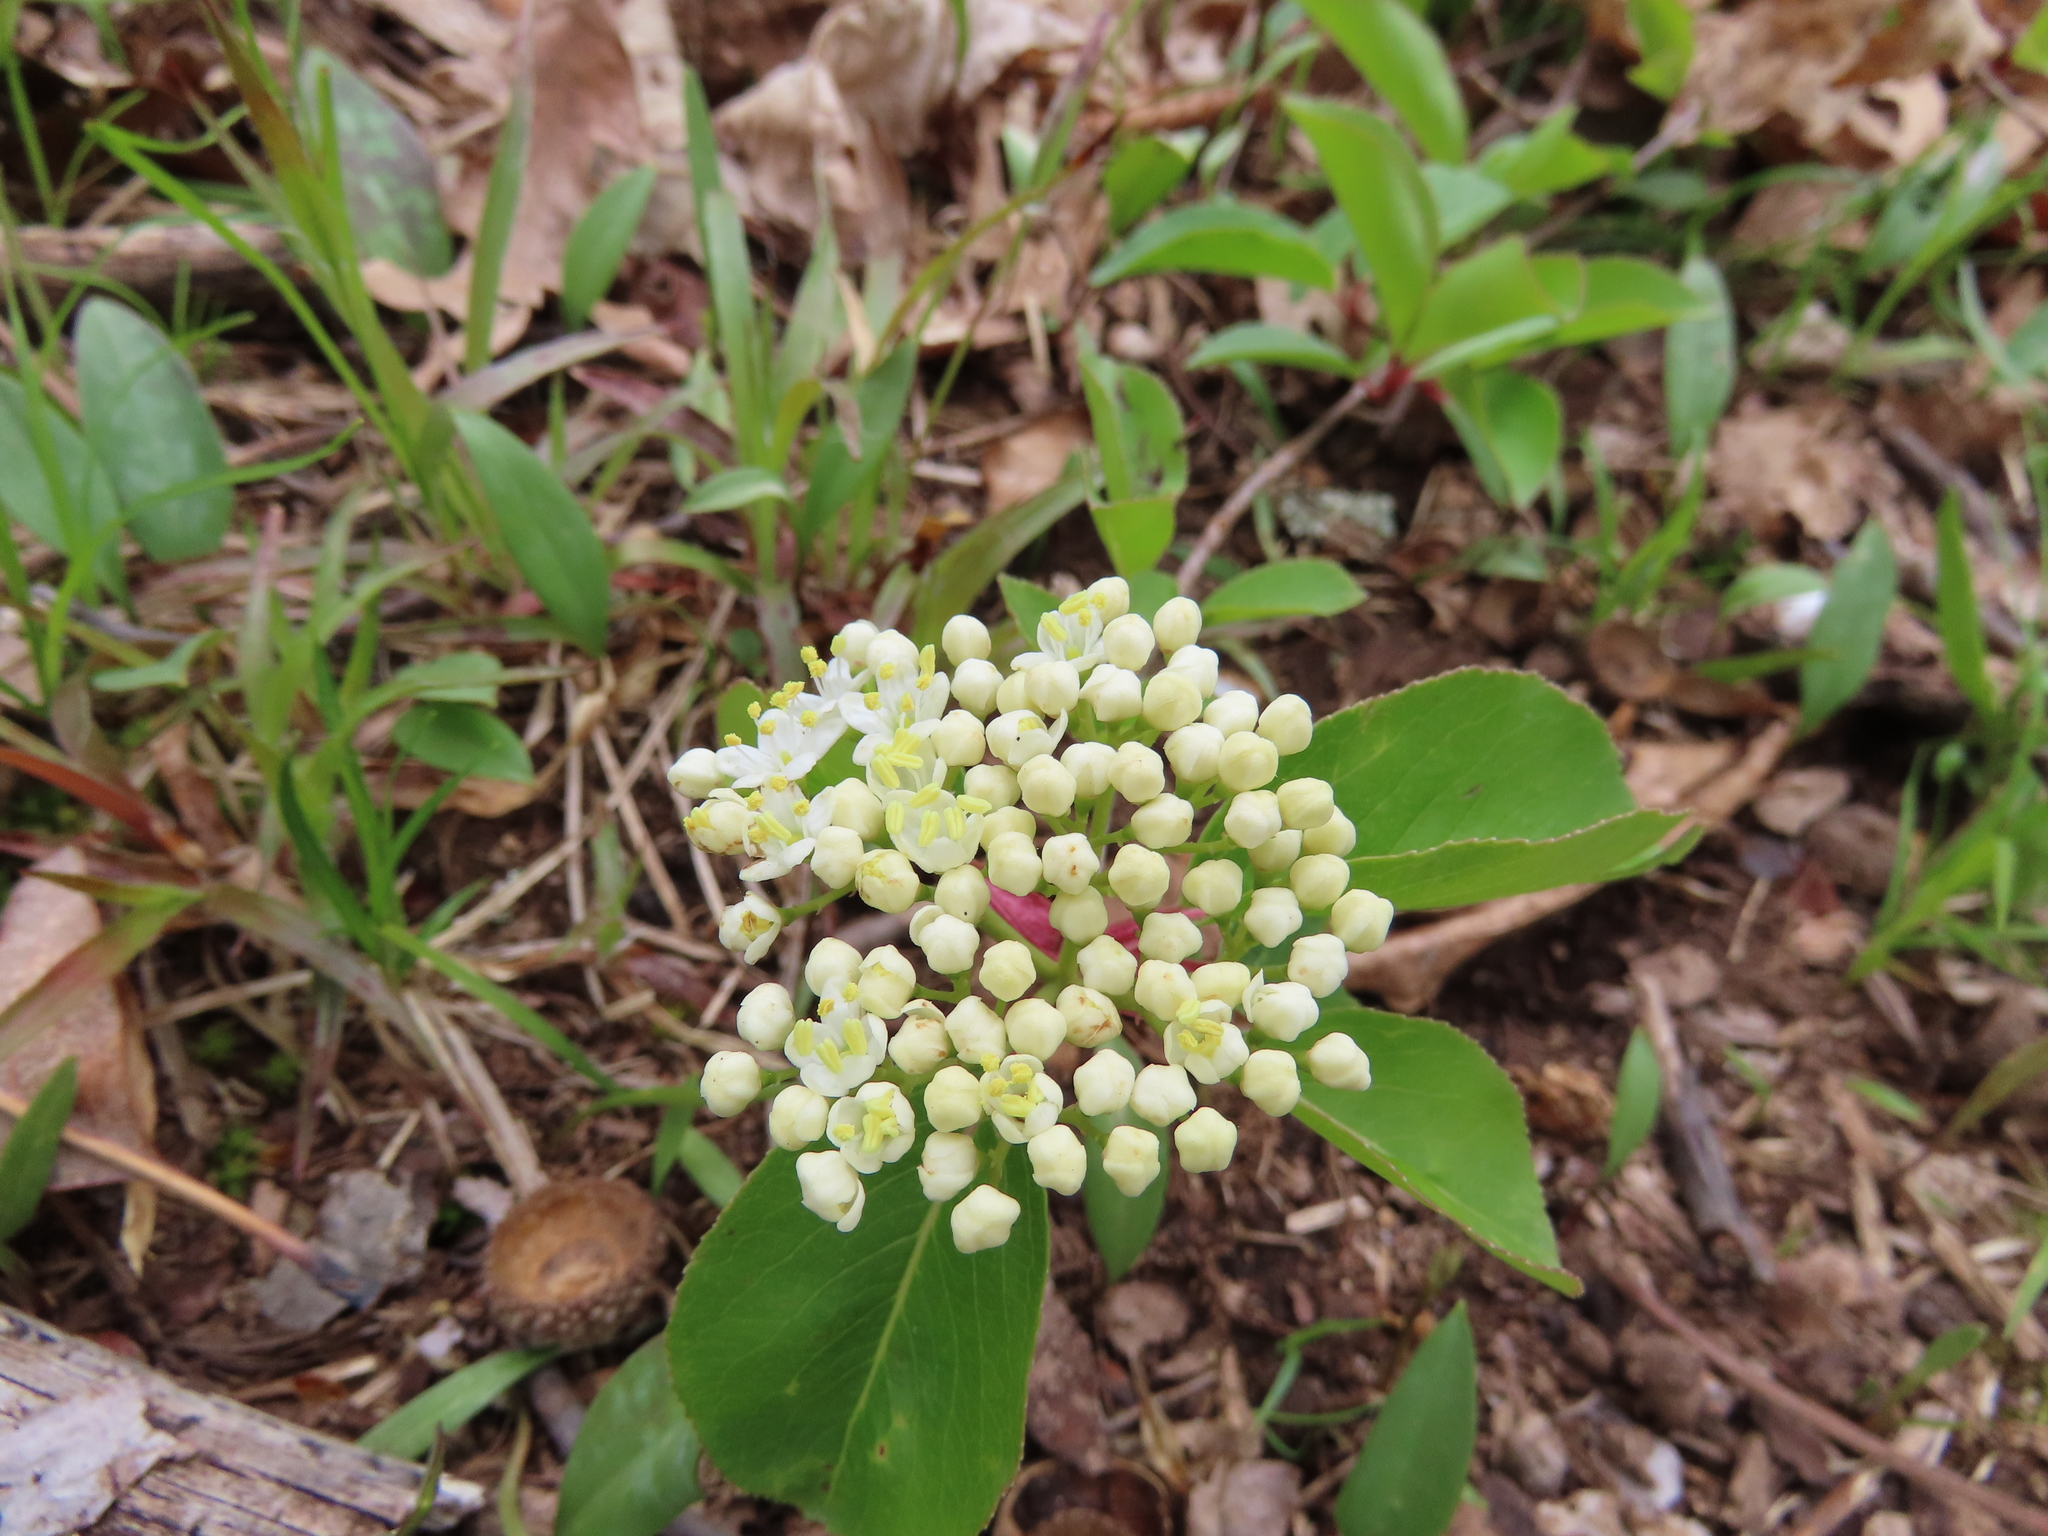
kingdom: Plantae
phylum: Tracheophyta
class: Magnoliopsida
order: Dipsacales
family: Viburnaceae
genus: Viburnum
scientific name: Viburnum prunifolium
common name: Black haw
